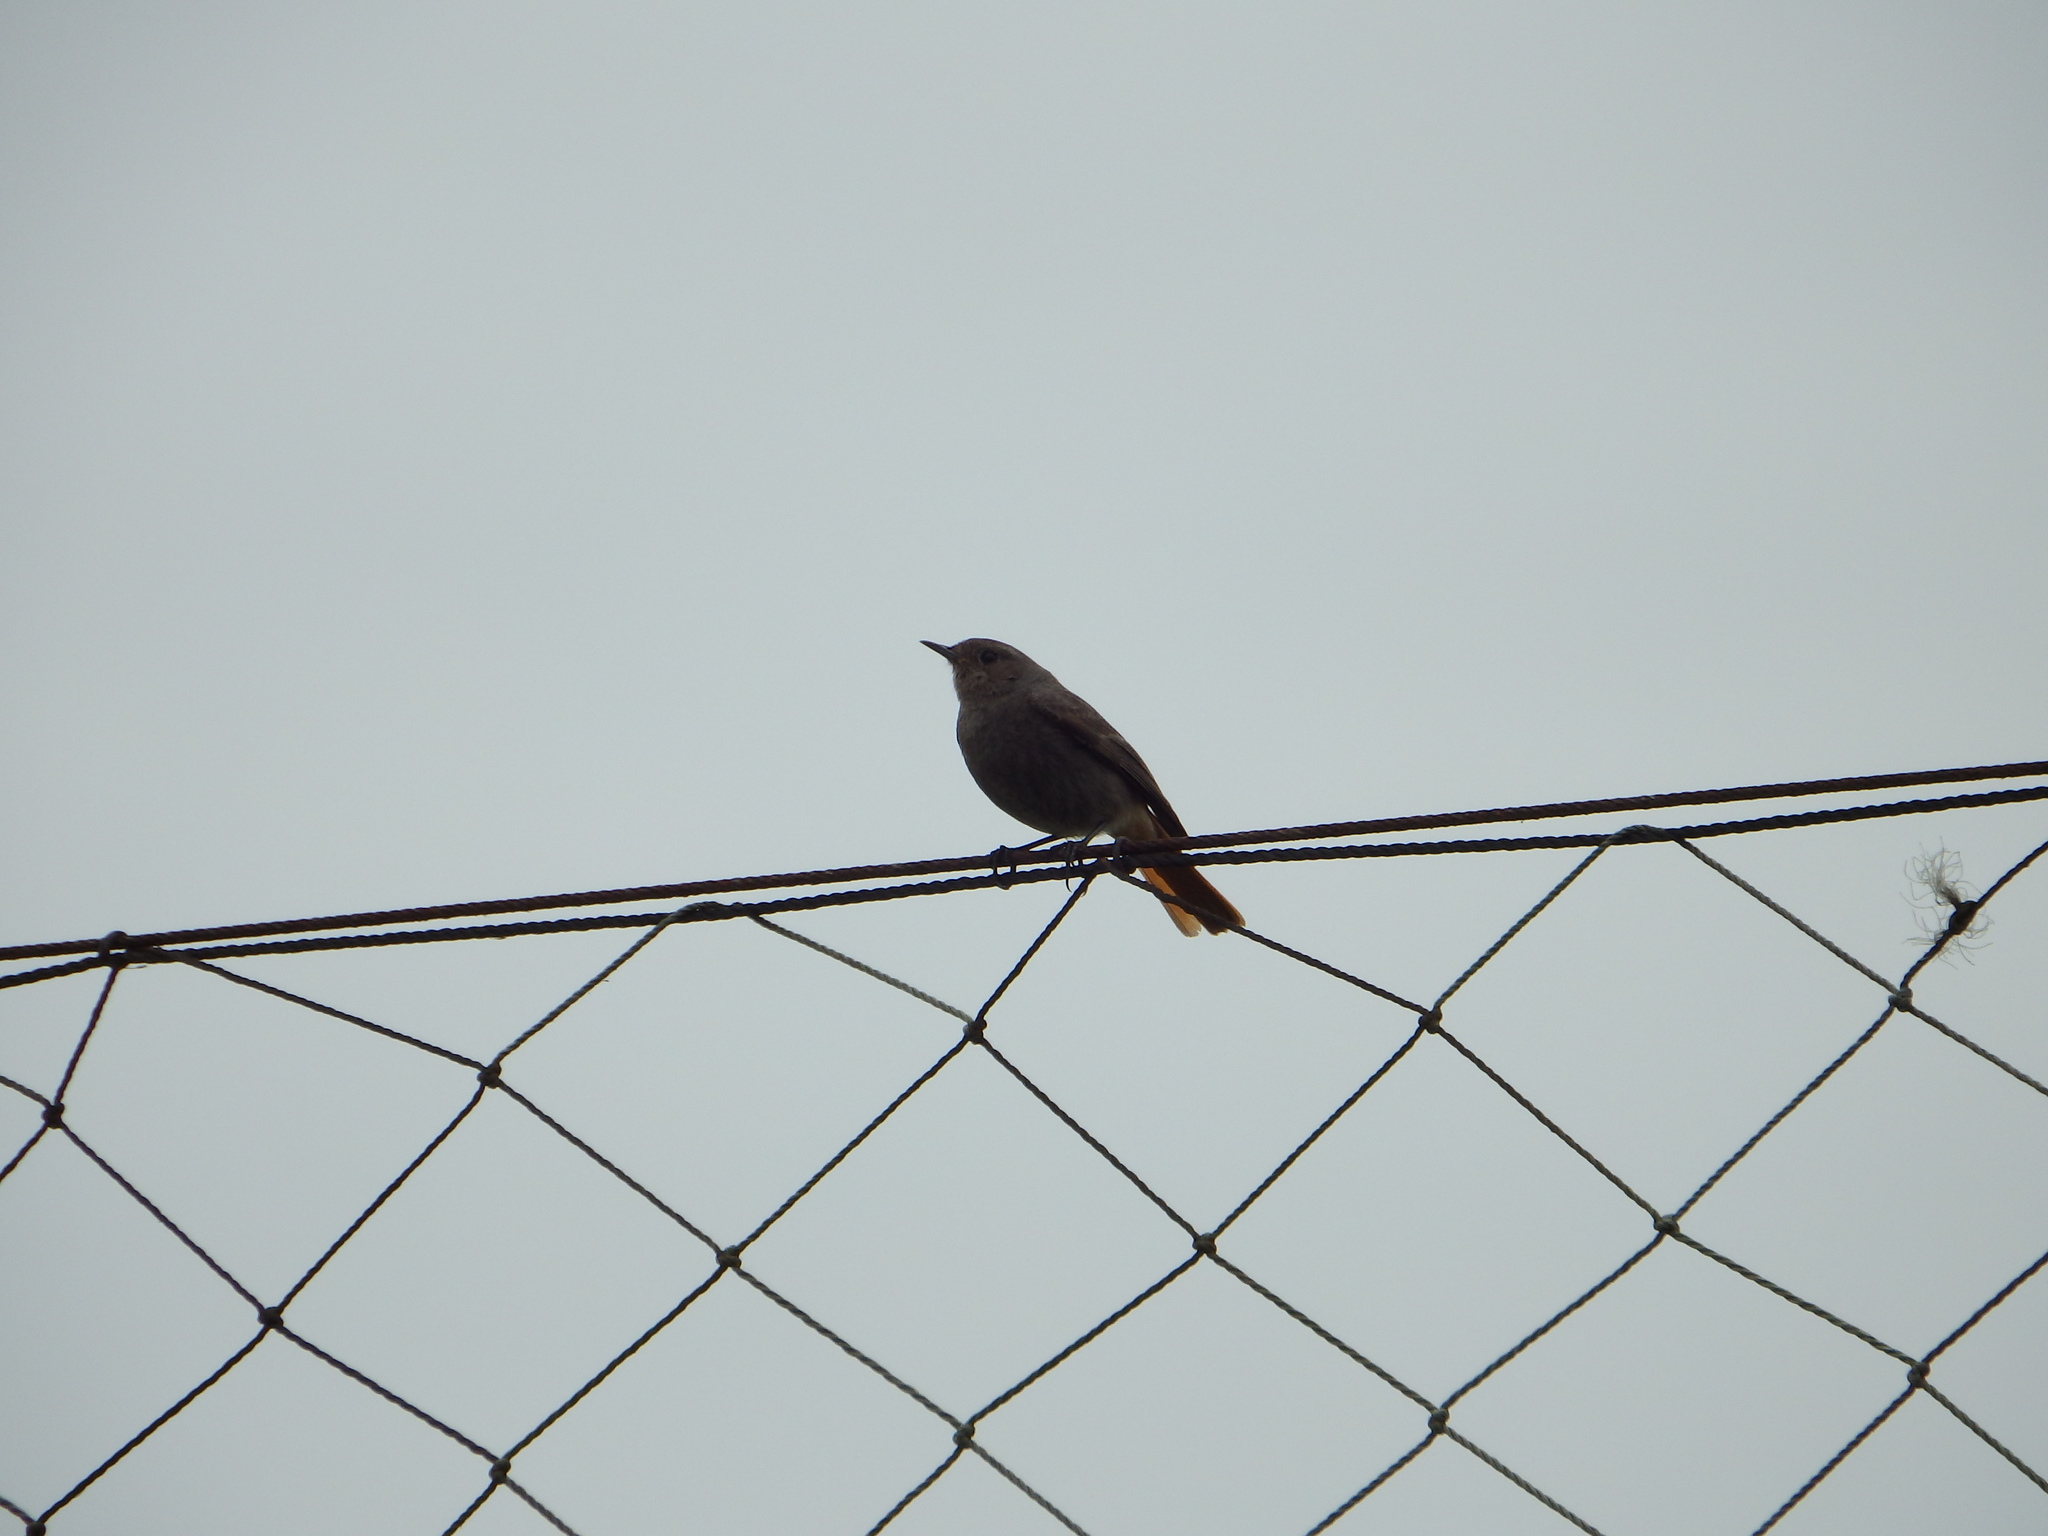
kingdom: Animalia
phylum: Chordata
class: Aves
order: Passeriformes
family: Muscicapidae
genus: Phoenicurus
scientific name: Phoenicurus ochruros
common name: Black redstart
